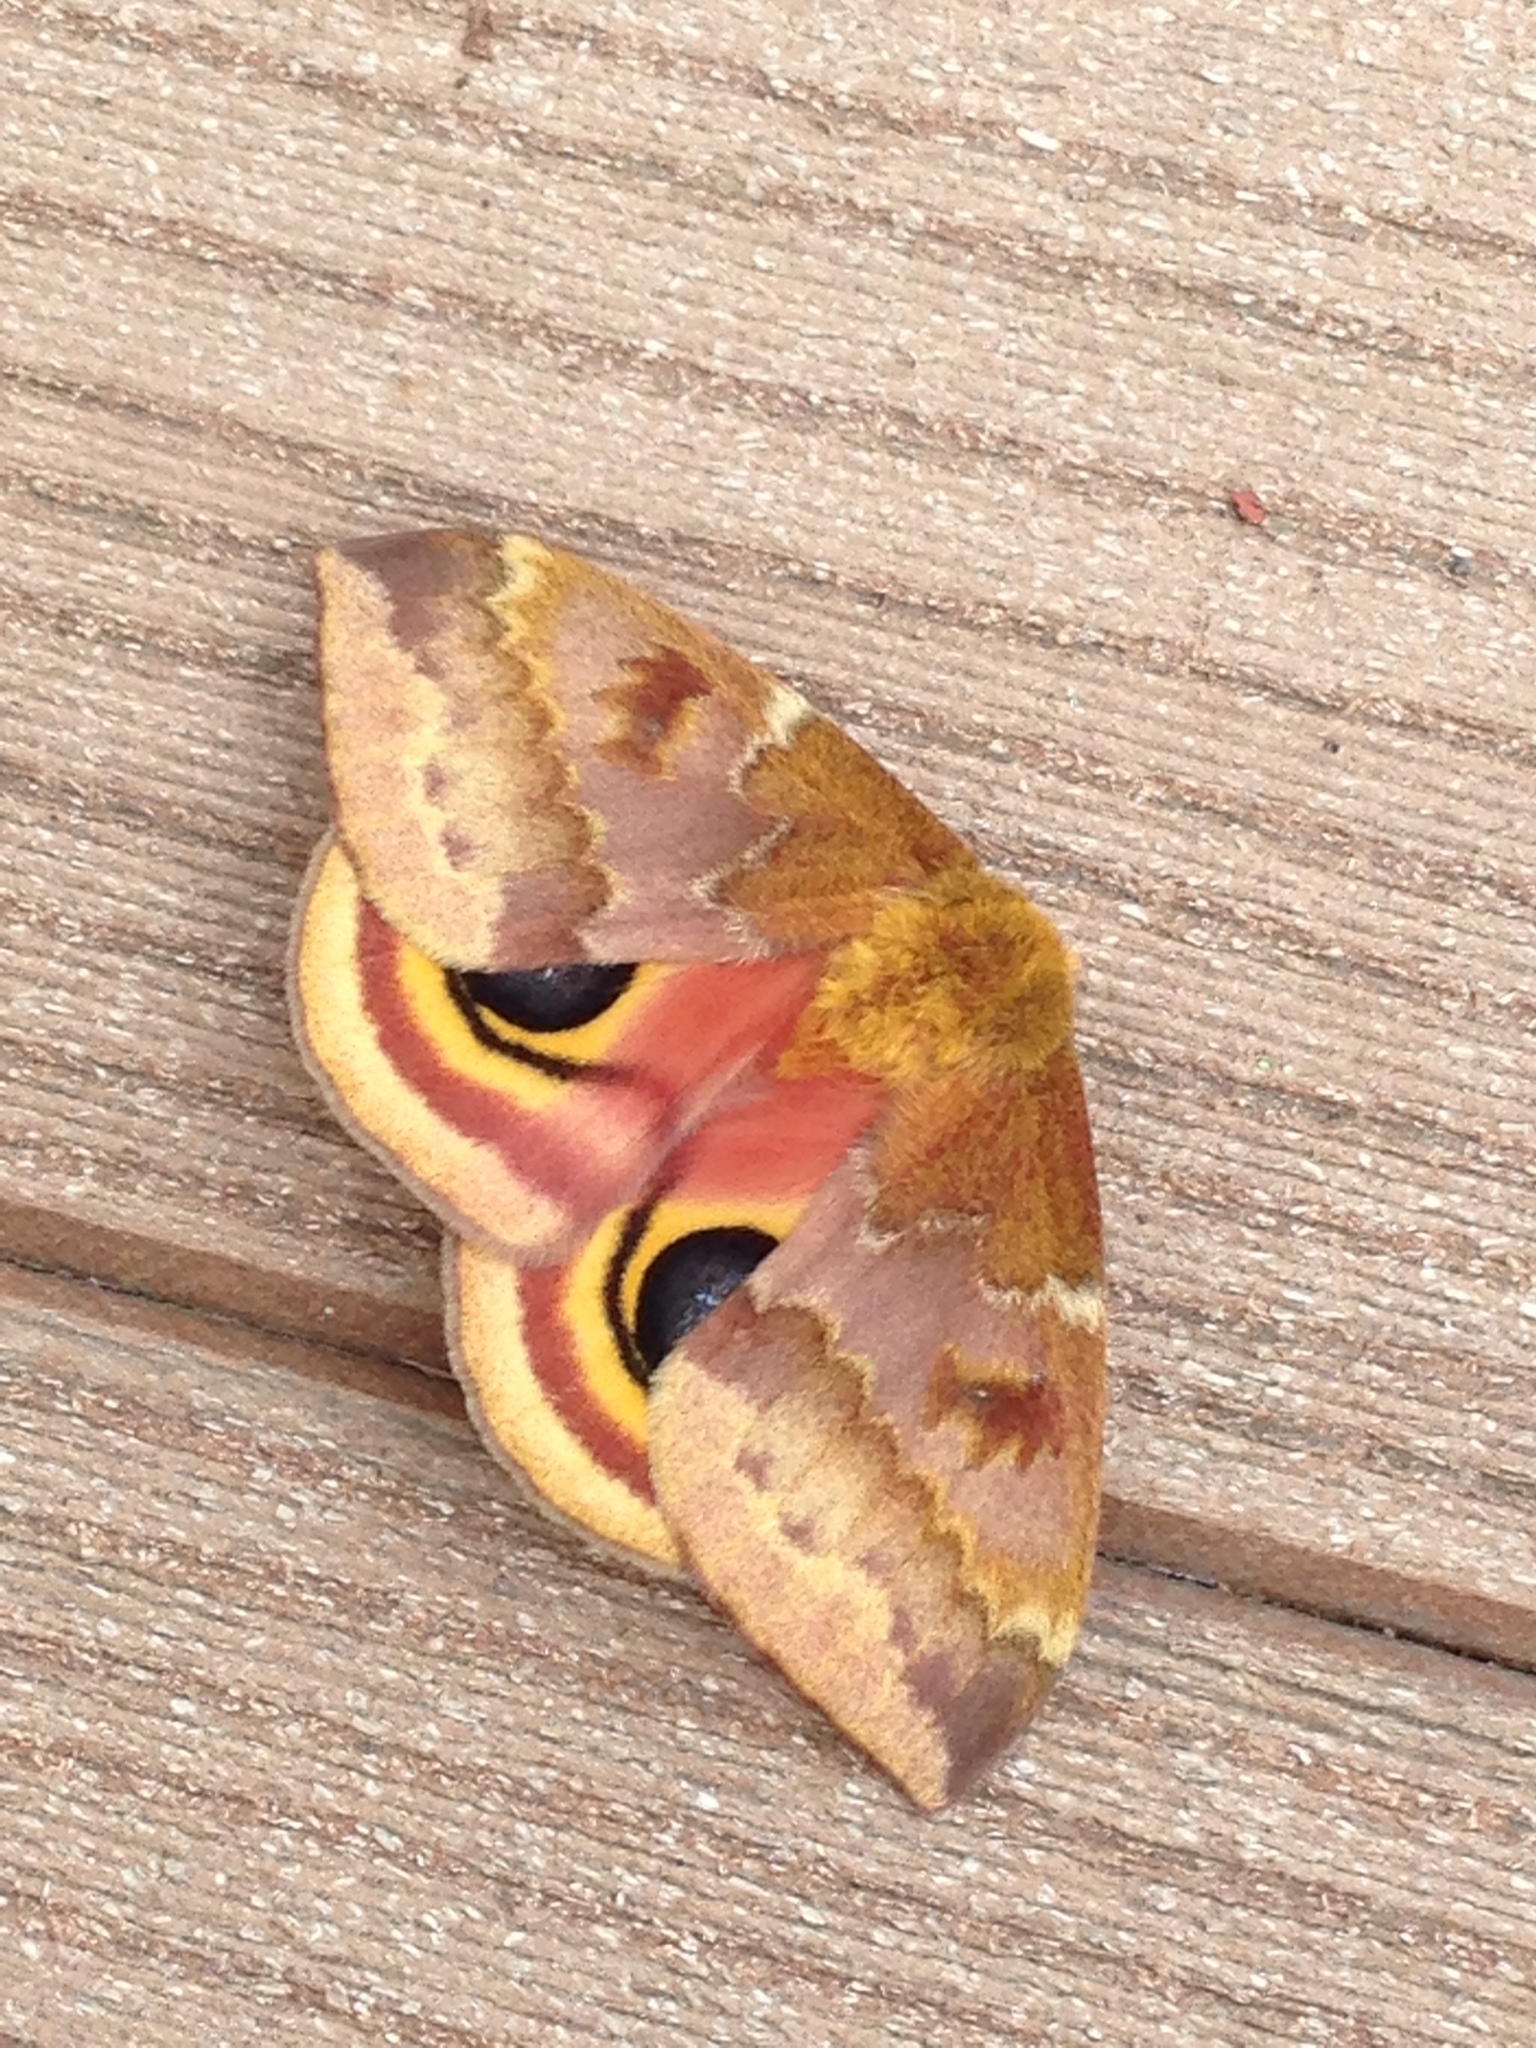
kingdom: Animalia
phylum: Arthropoda
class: Insecta
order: Lepidoptera
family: Saturniidae
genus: Automeris
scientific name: Automeris io
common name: Io moth
